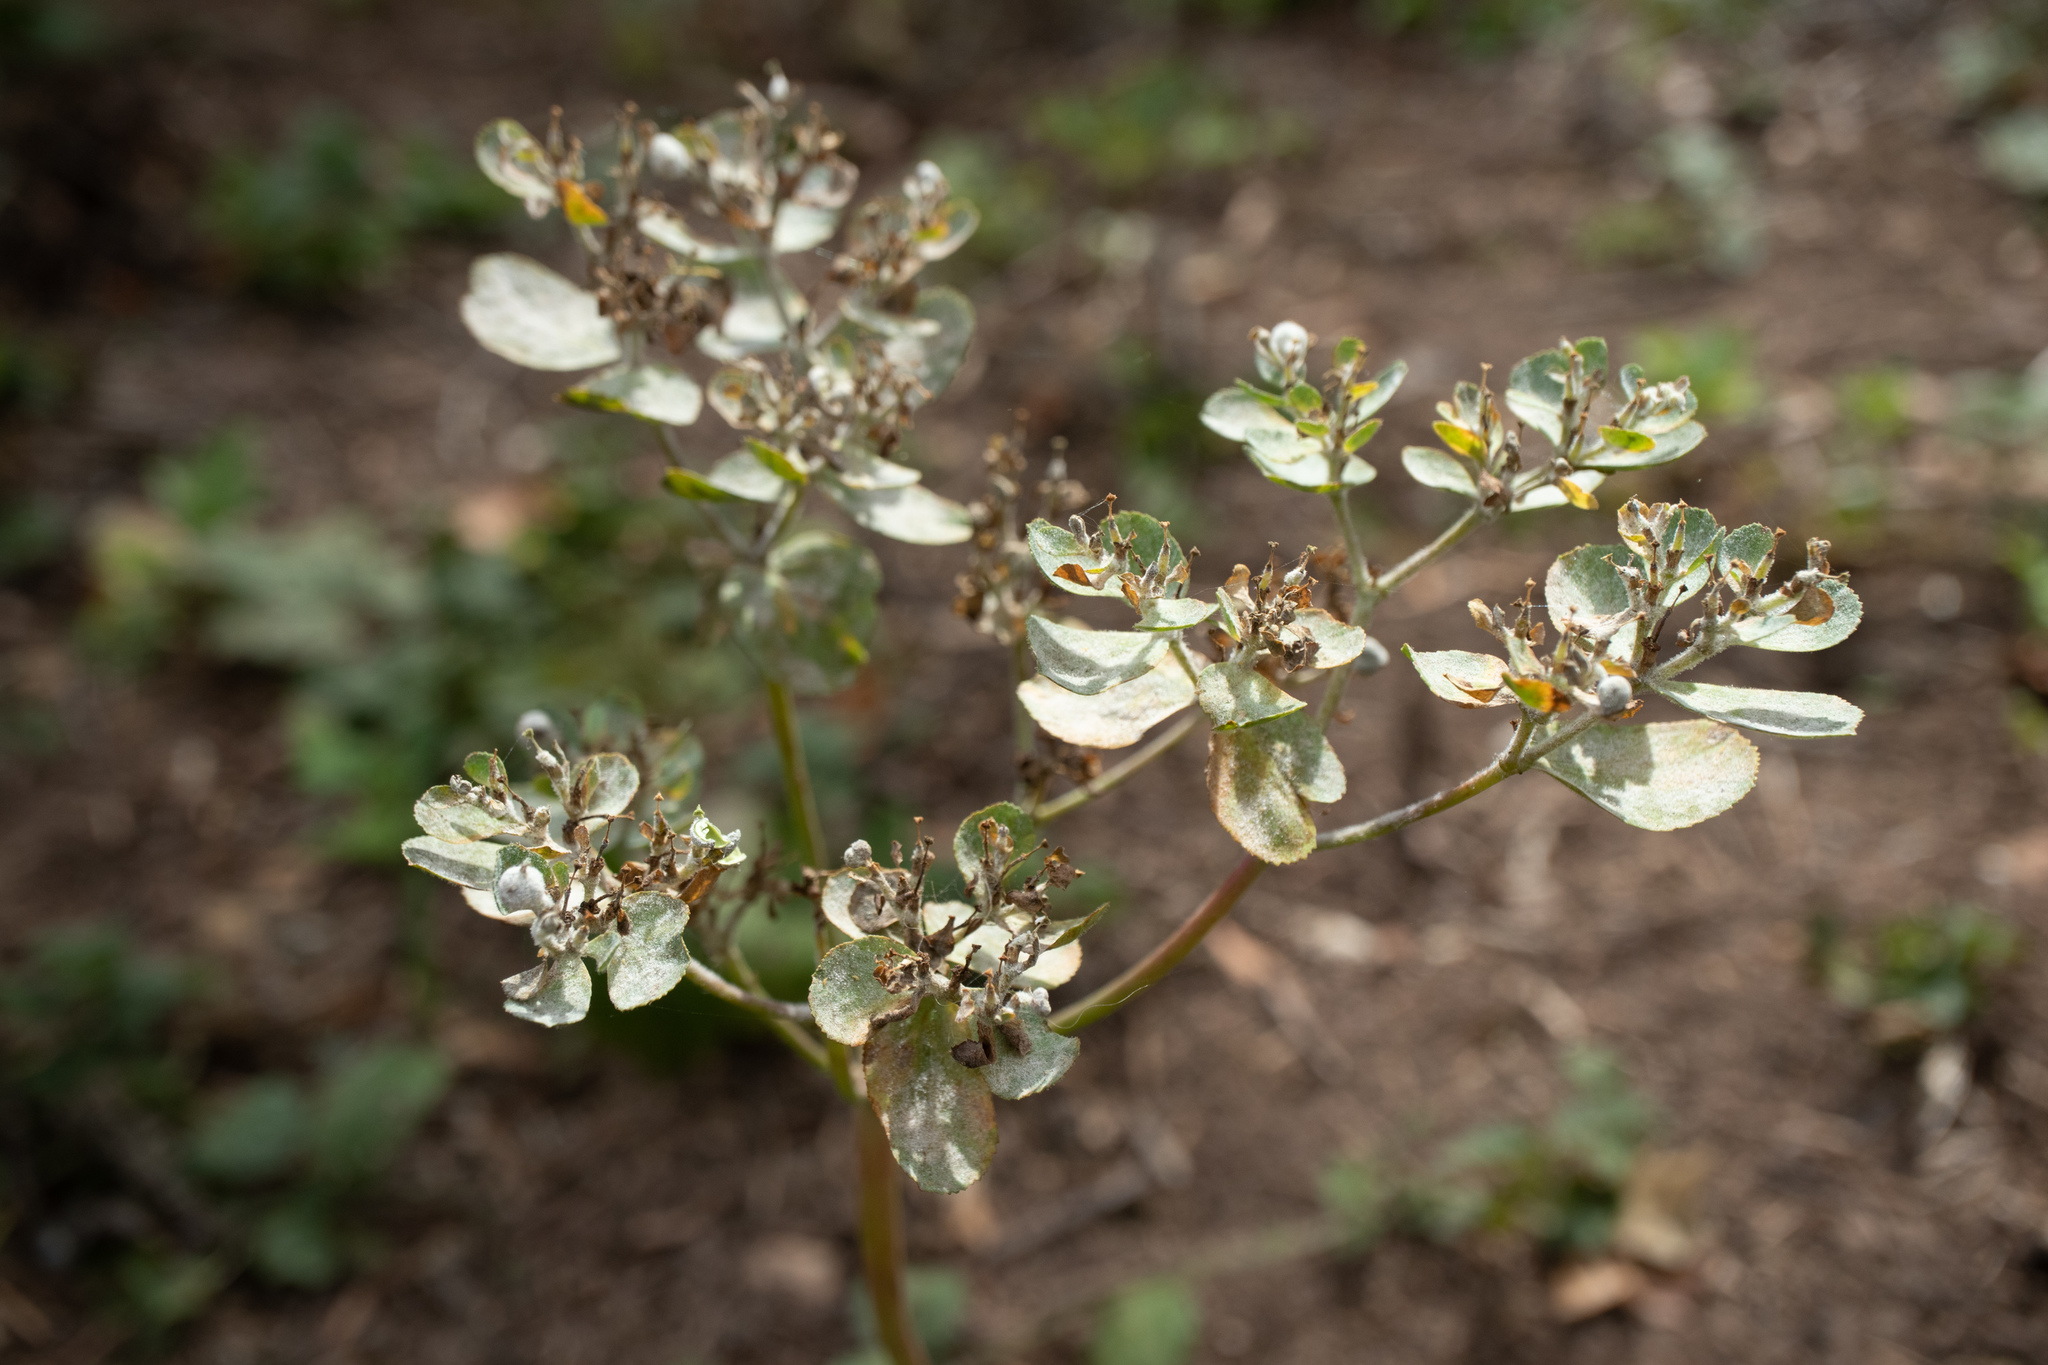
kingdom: Plantae
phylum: Tracheophyta
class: Magnoliopsida
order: Malpighiales
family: Euphorbiaceae
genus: Euphorbia
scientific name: Euphorbia helioscopia
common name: Sun spurge
